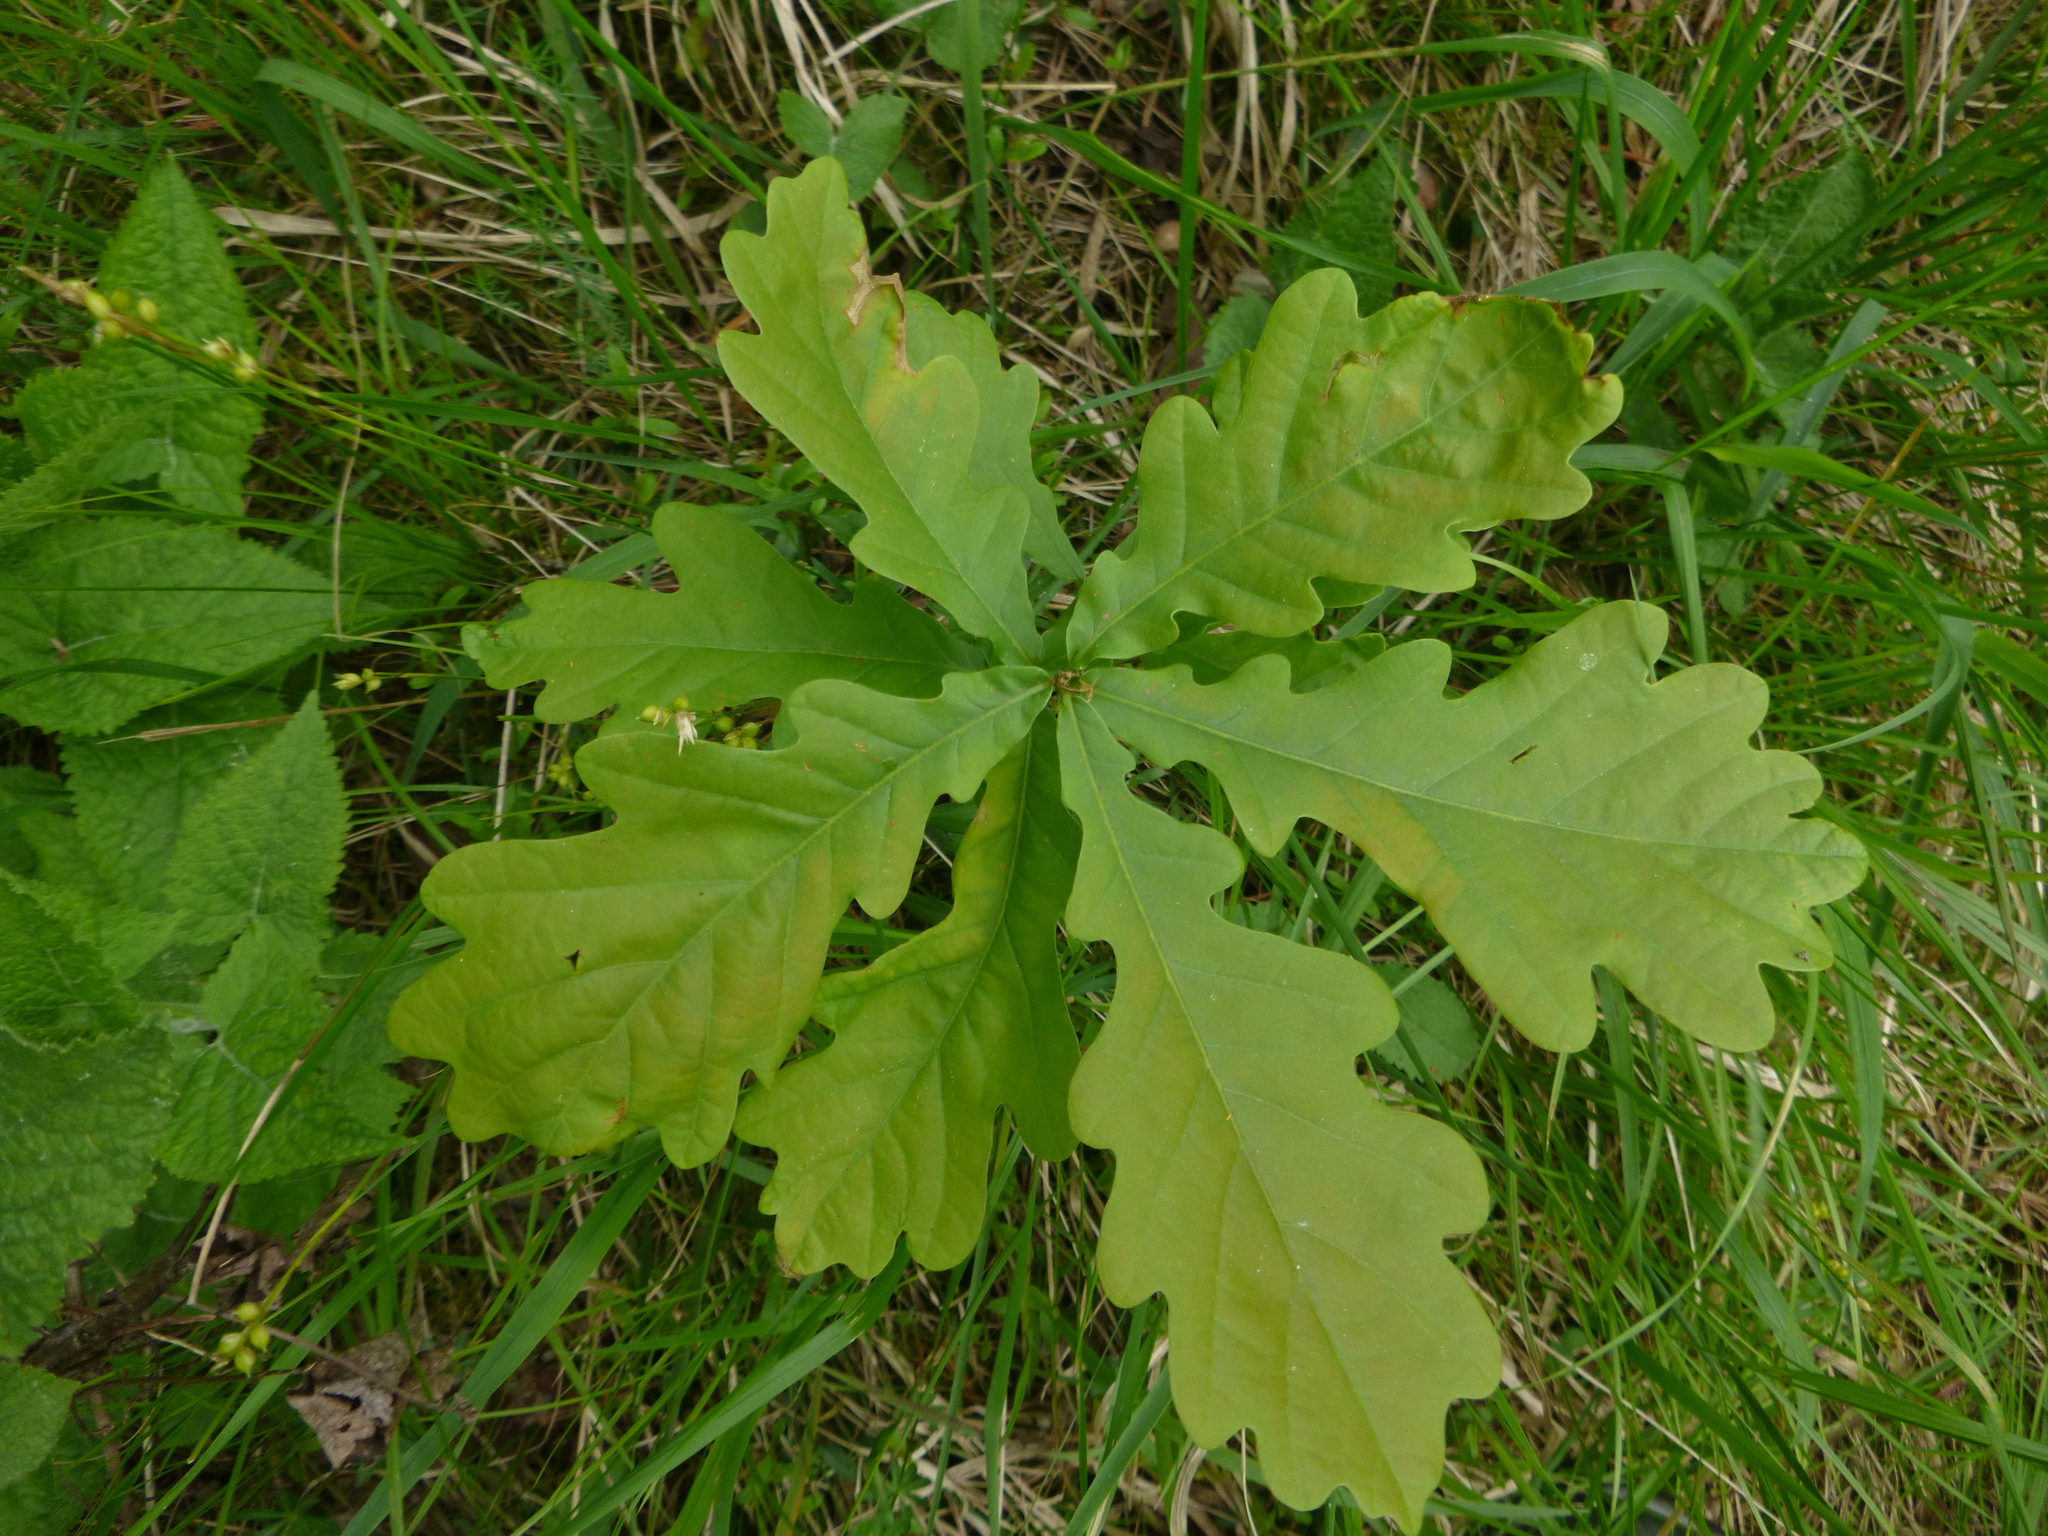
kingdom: Plantae
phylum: Tracheophyta
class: Magnoliopsida
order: Fagales
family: Fagaceae
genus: Quercus
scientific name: Quercus robur
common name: Pedunculate oak
